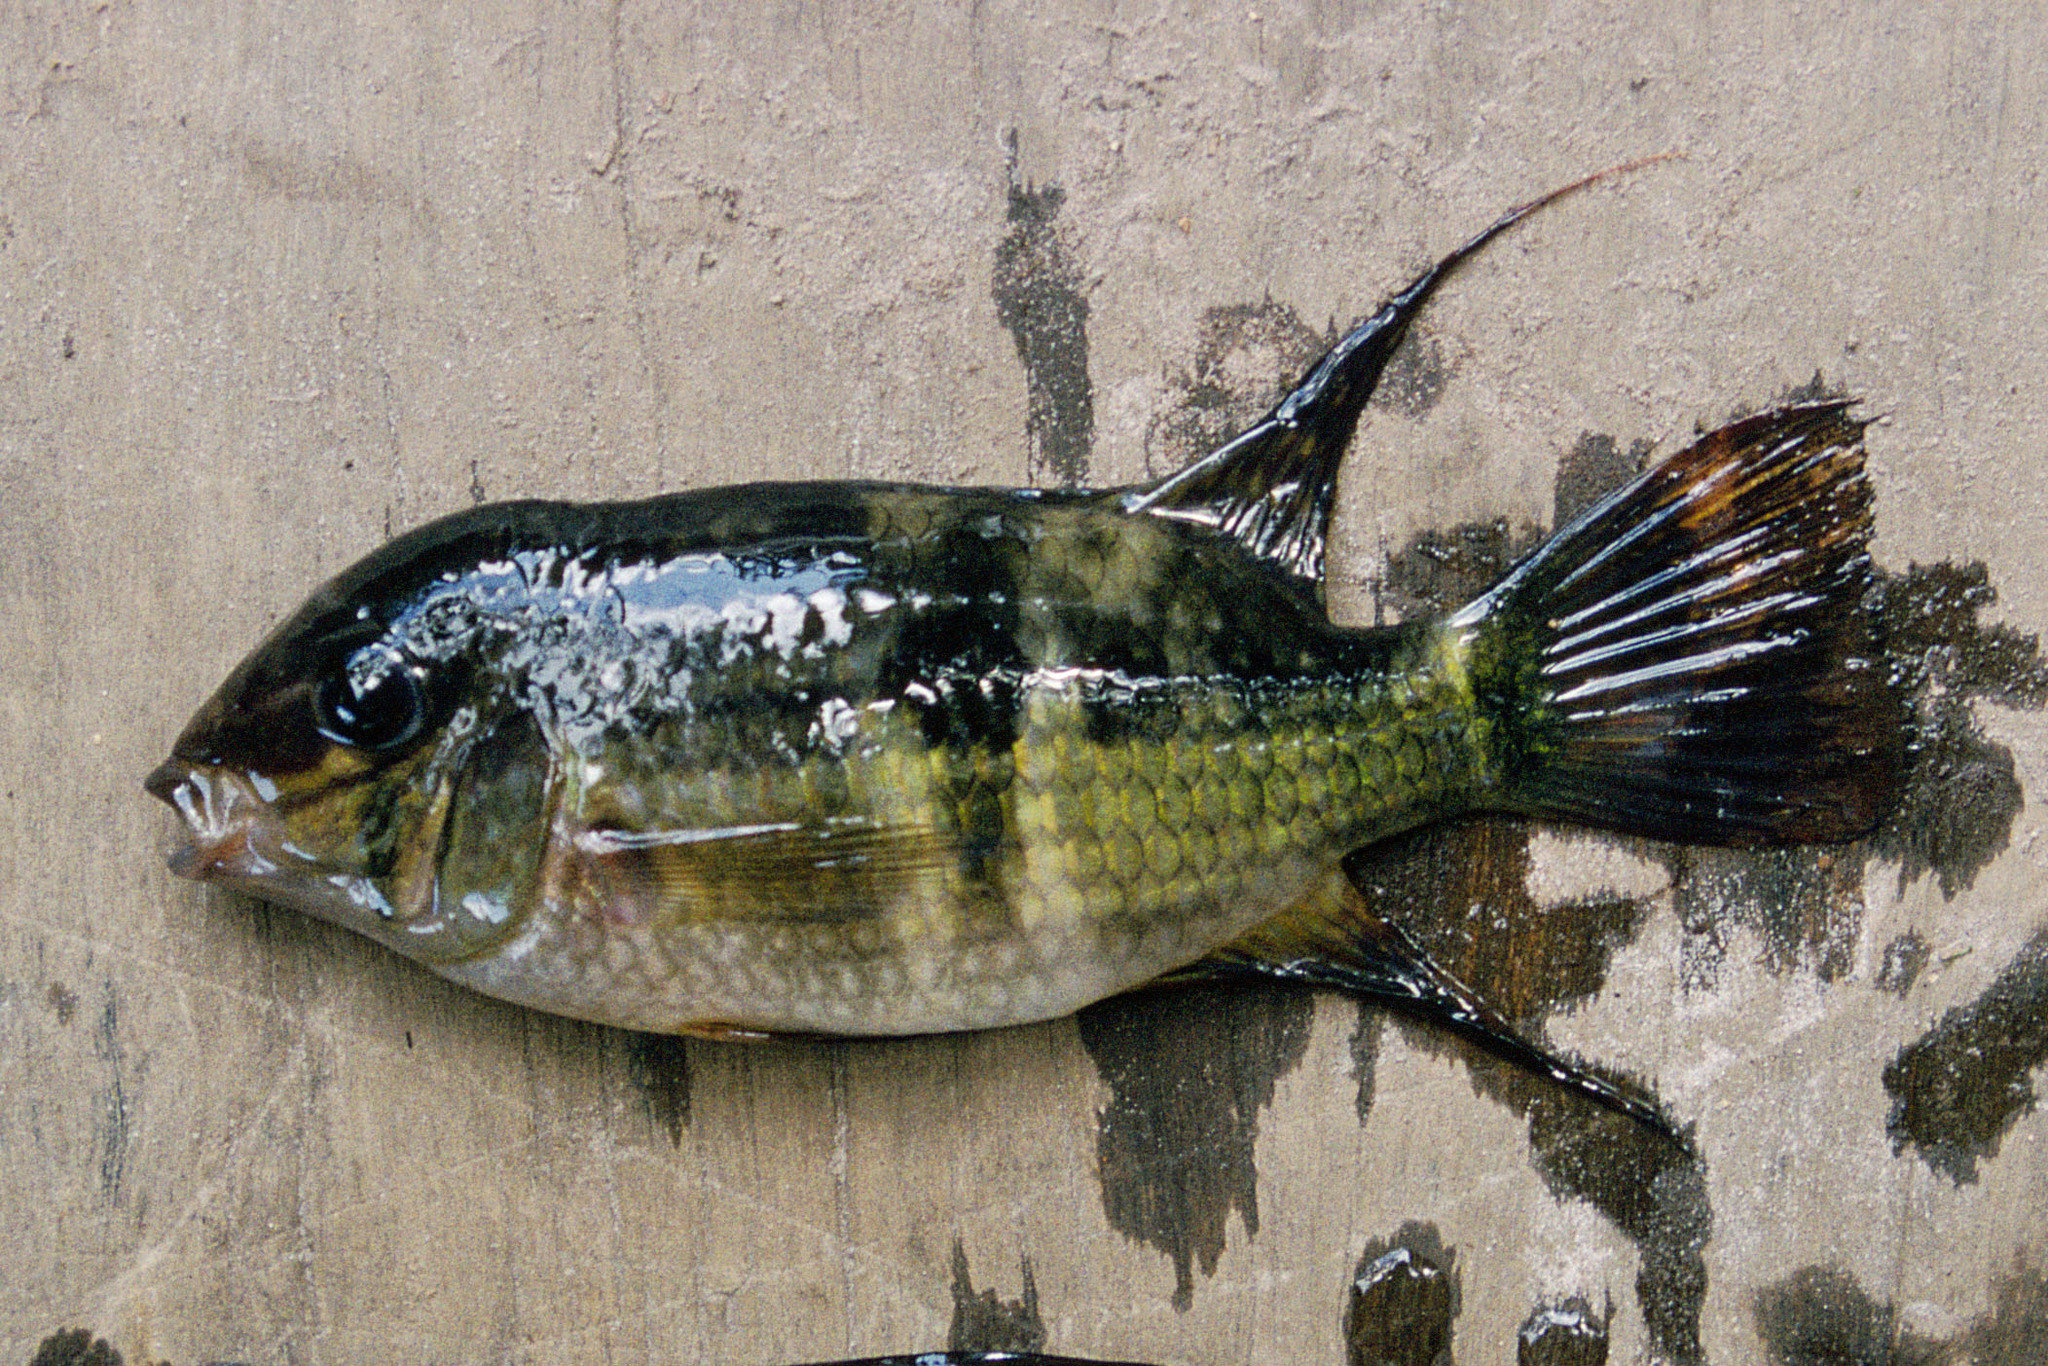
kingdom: Animalia
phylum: Chordata
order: Perciformes
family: Cichlidae
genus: Aequidens
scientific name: Aequidens potaroensis
